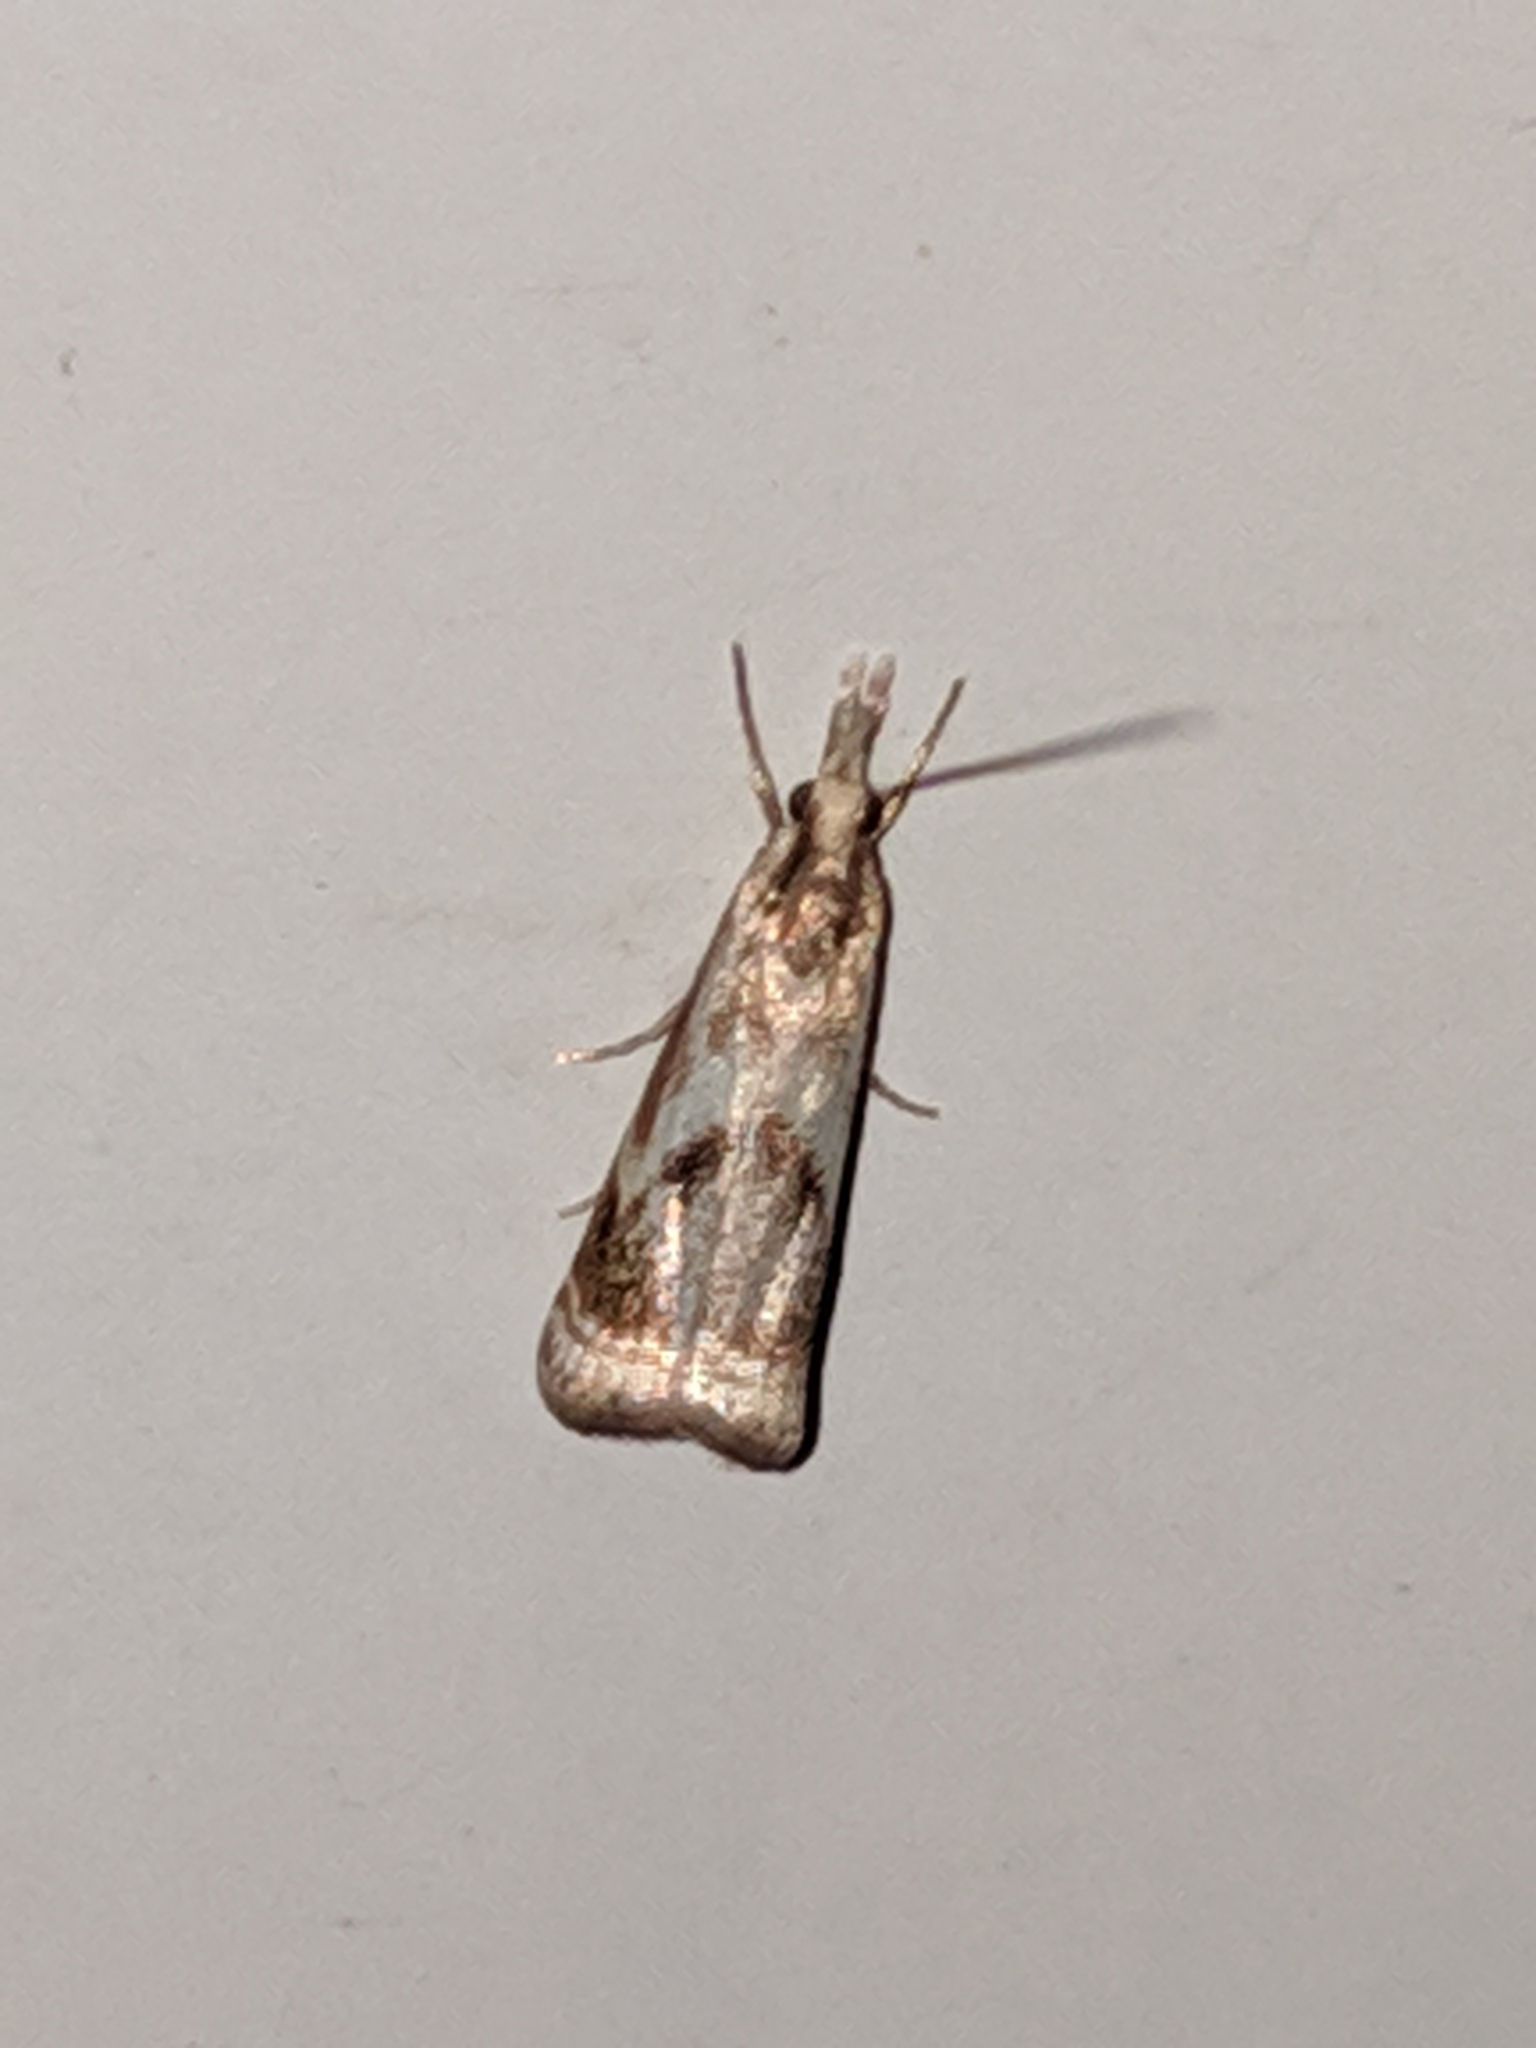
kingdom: Animalia
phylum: Arthropoda
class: Insecta
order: Lepidoptera
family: Crambidae
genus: Microcrambus
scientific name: Microcrambus elegans
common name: Elegant grass-veneer
